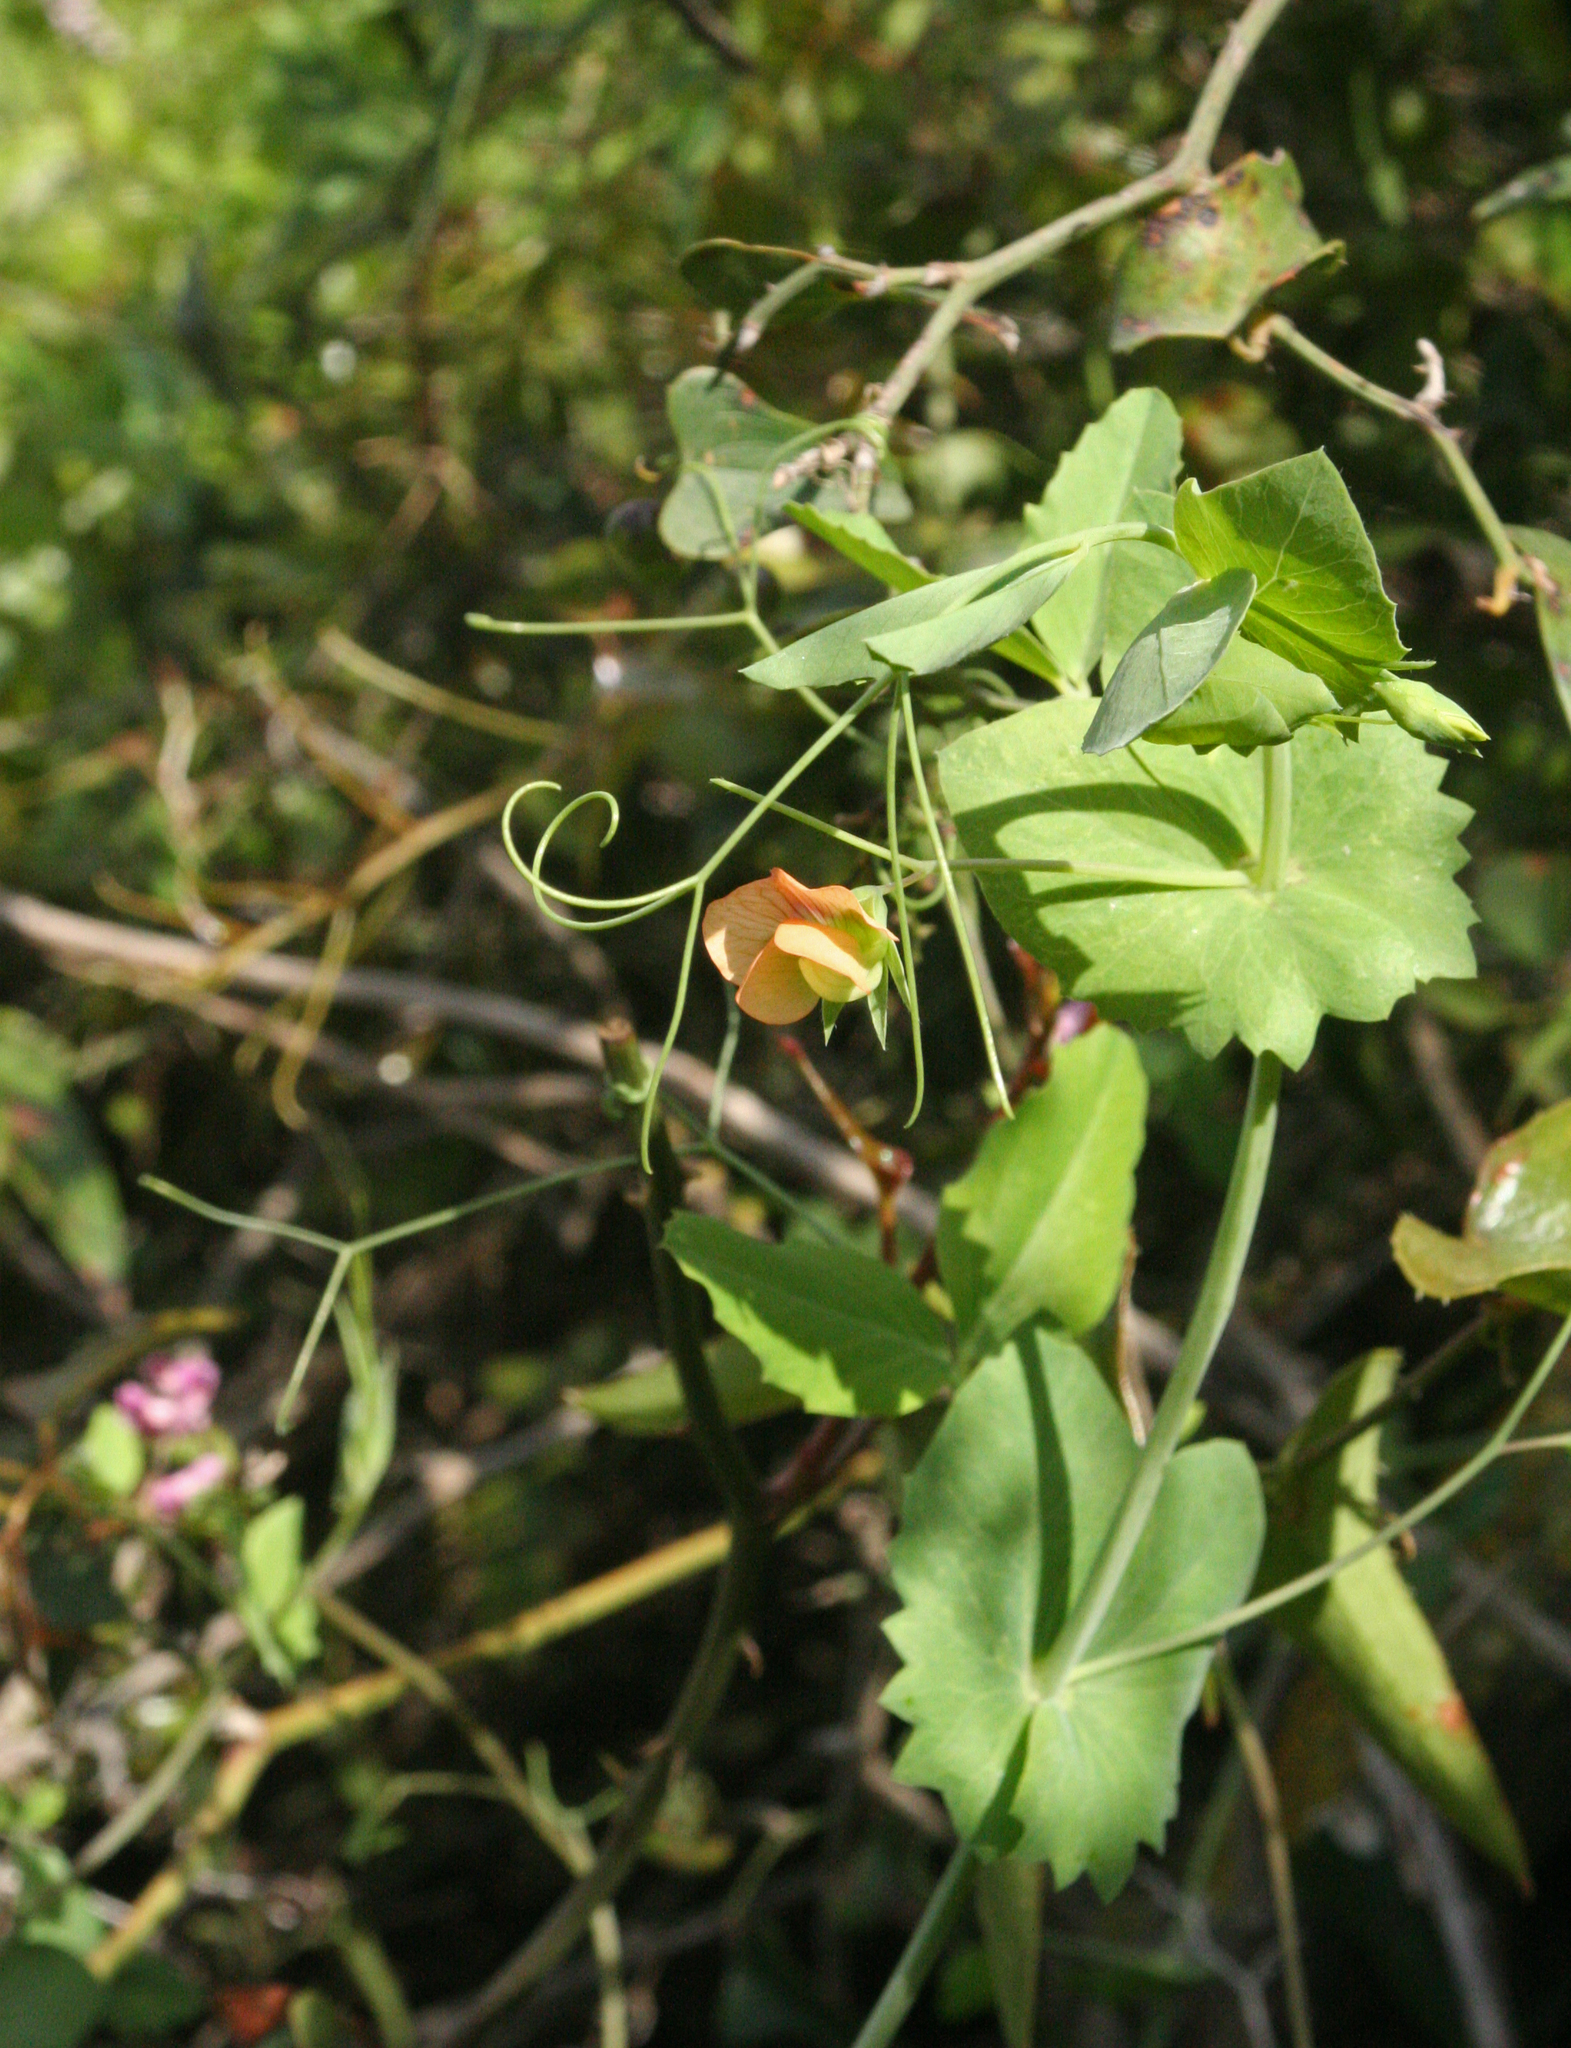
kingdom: Plantae
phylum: Tracheophyta
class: Magnoliopsida
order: Fabales
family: Fabaceae
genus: Lathyrus
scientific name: Lathyrus fulvus
